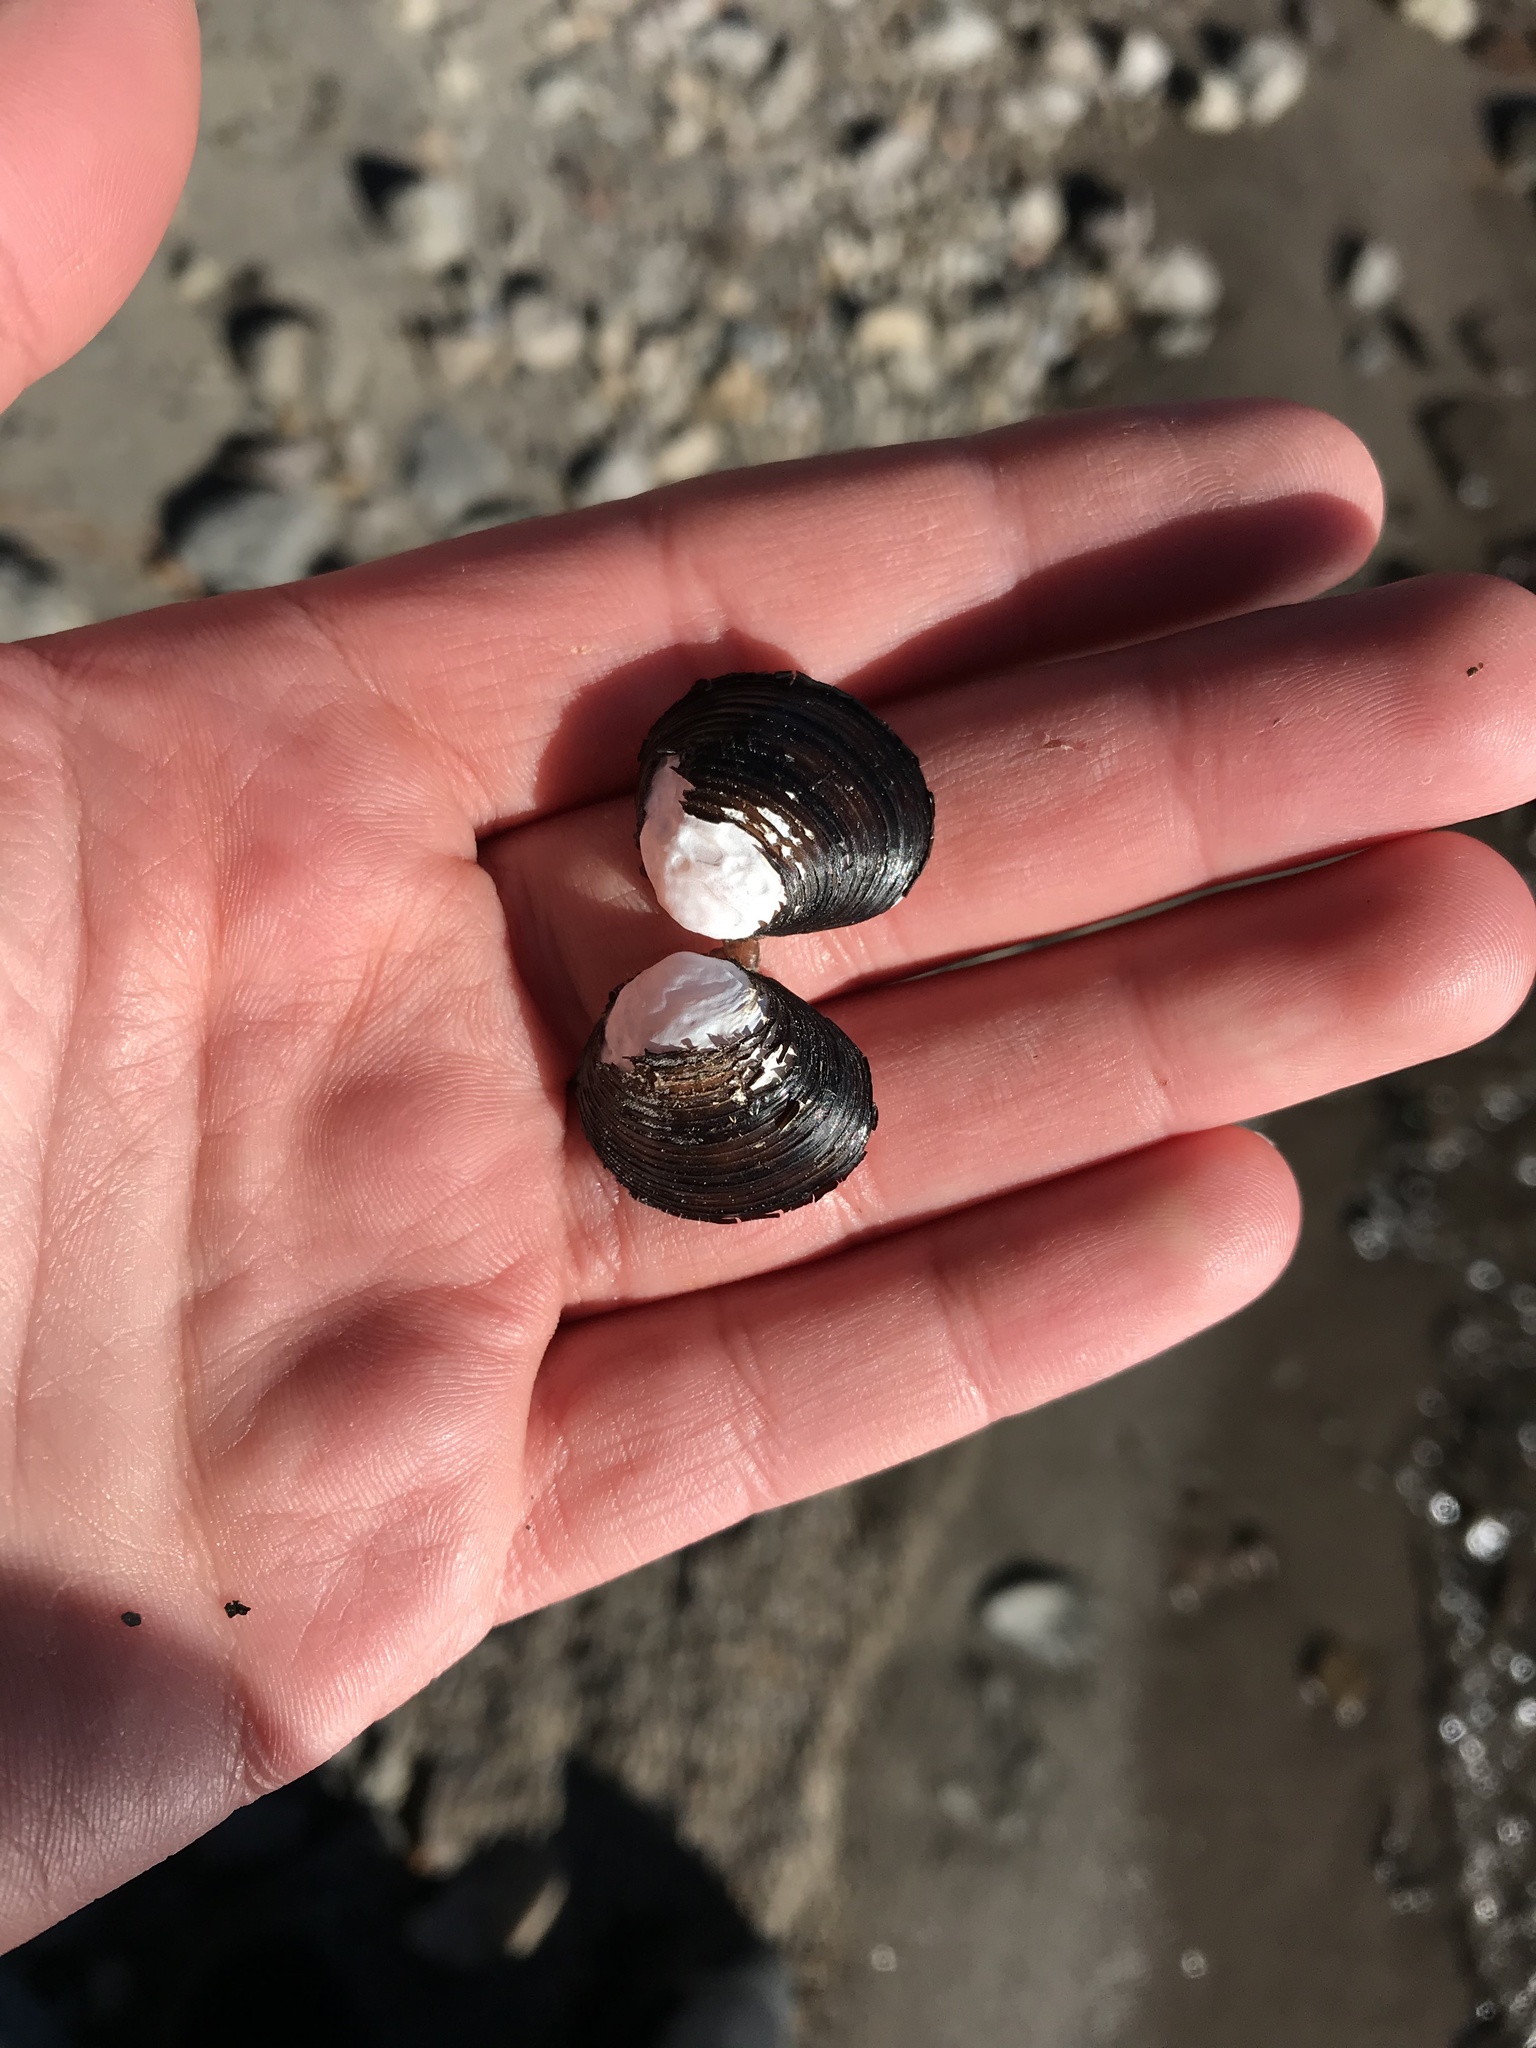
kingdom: Animalia
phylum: Mollusca
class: Bivalvia
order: Venerida
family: Cyrenidae
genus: Corbicula
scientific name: Corbicula fluminea
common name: Asian clam
